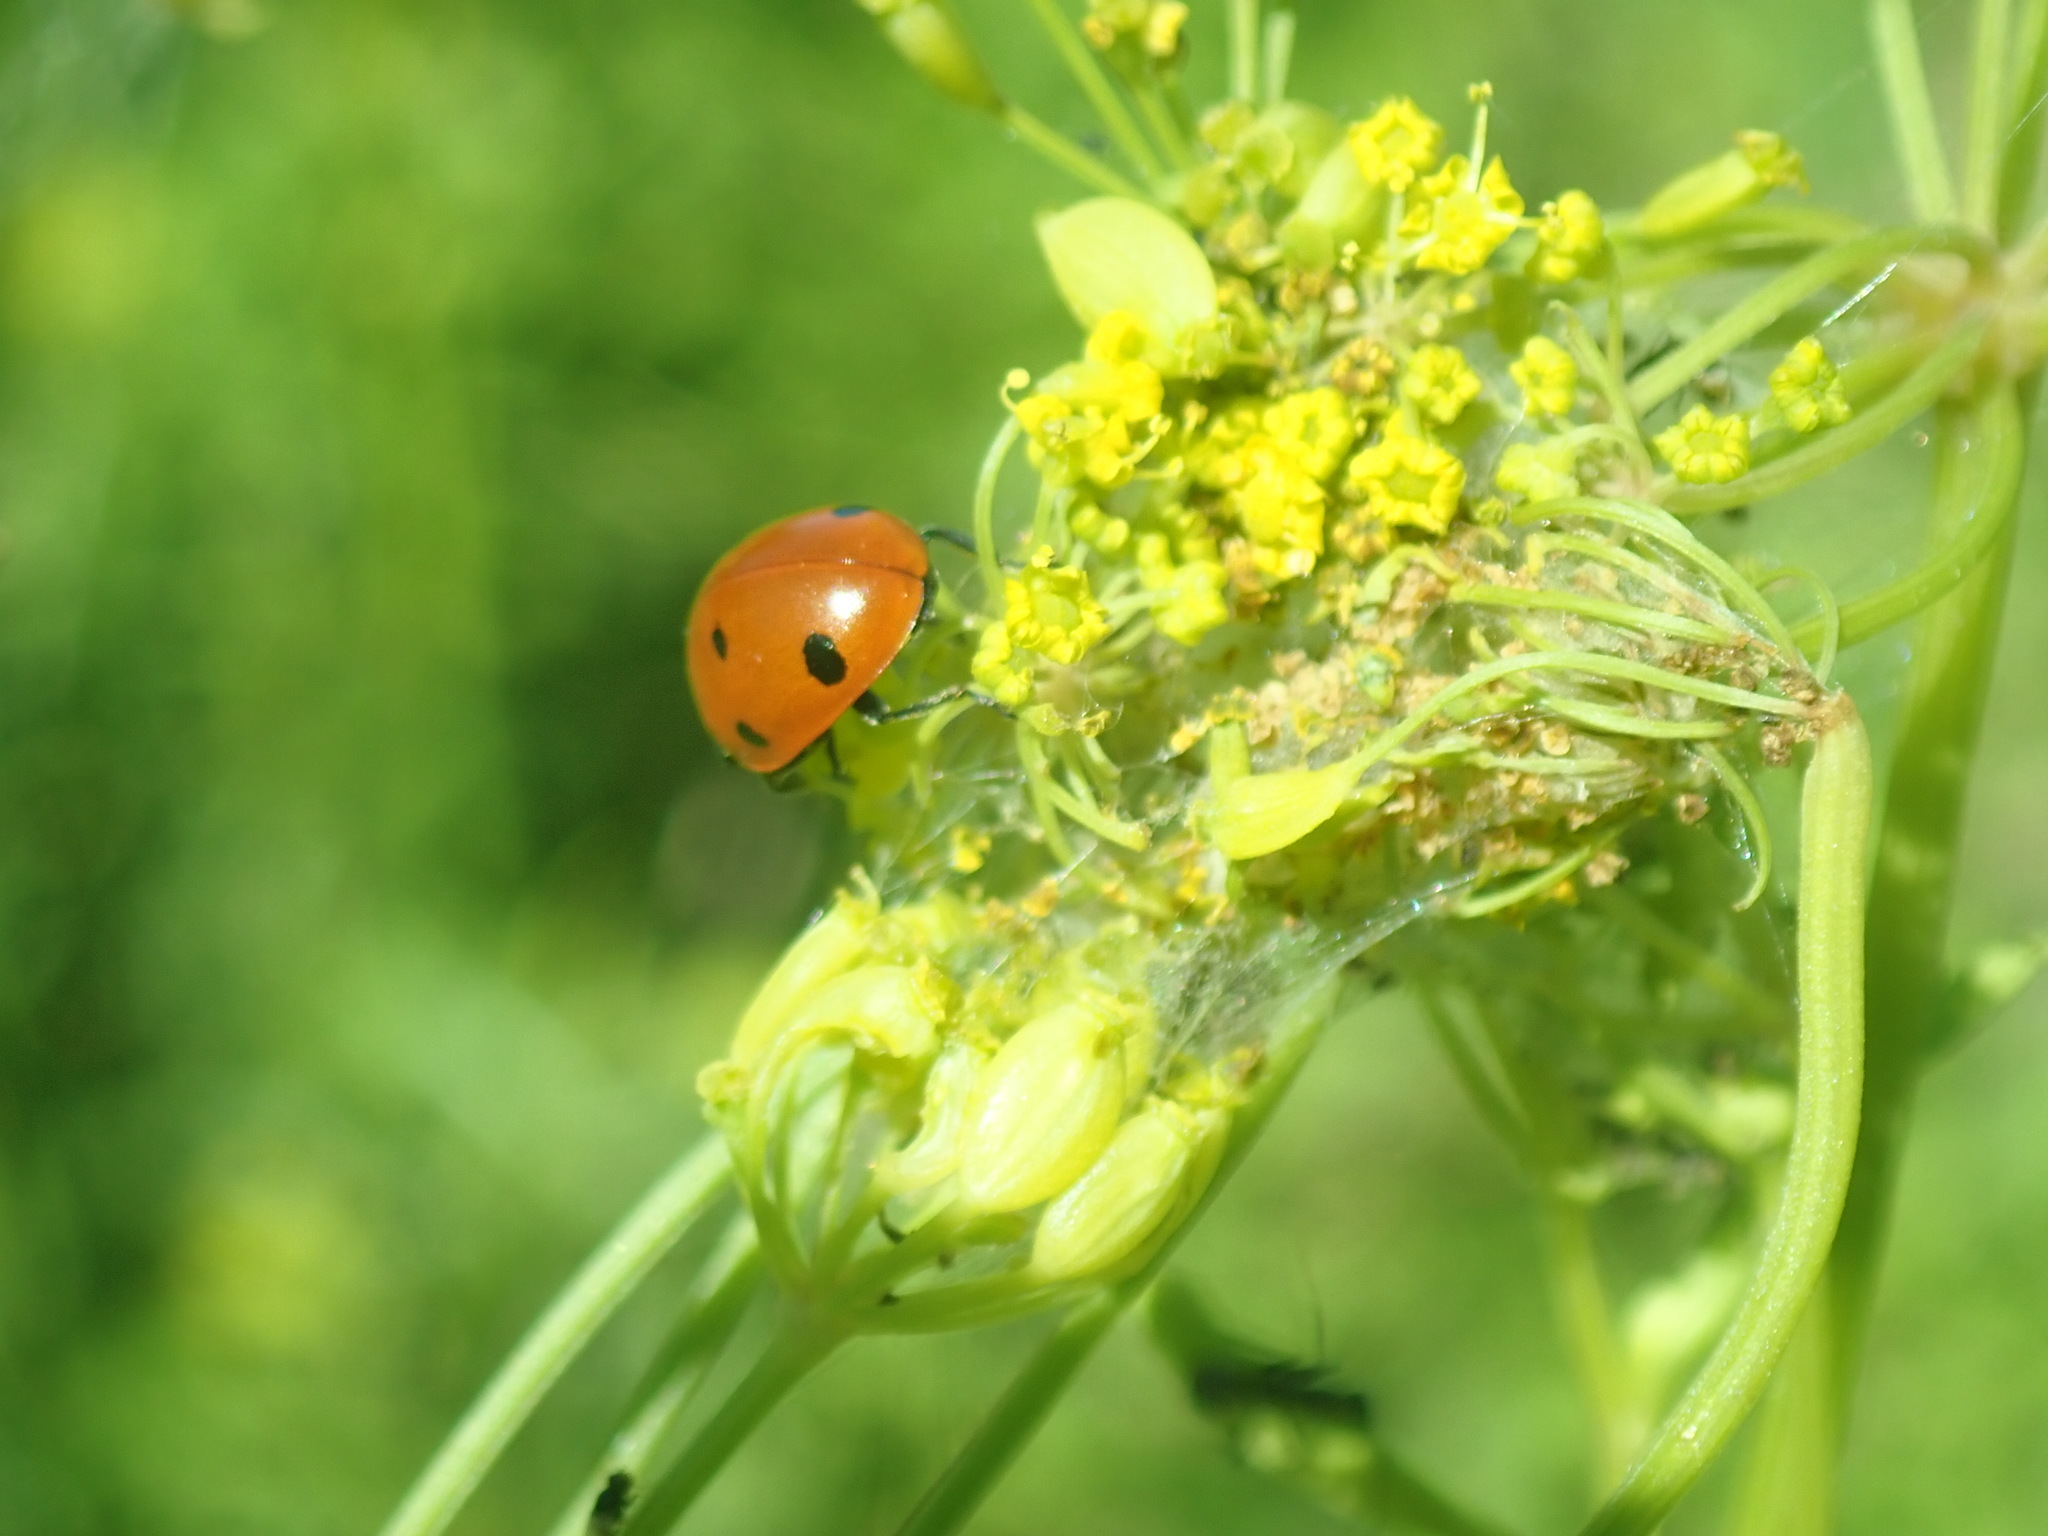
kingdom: Animalia
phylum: Arthropoda
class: Insecta
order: Coleoptera
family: Coccinellidae
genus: Coccinella
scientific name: Coccinella septempunctata
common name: Sevenspotted lady beetle
